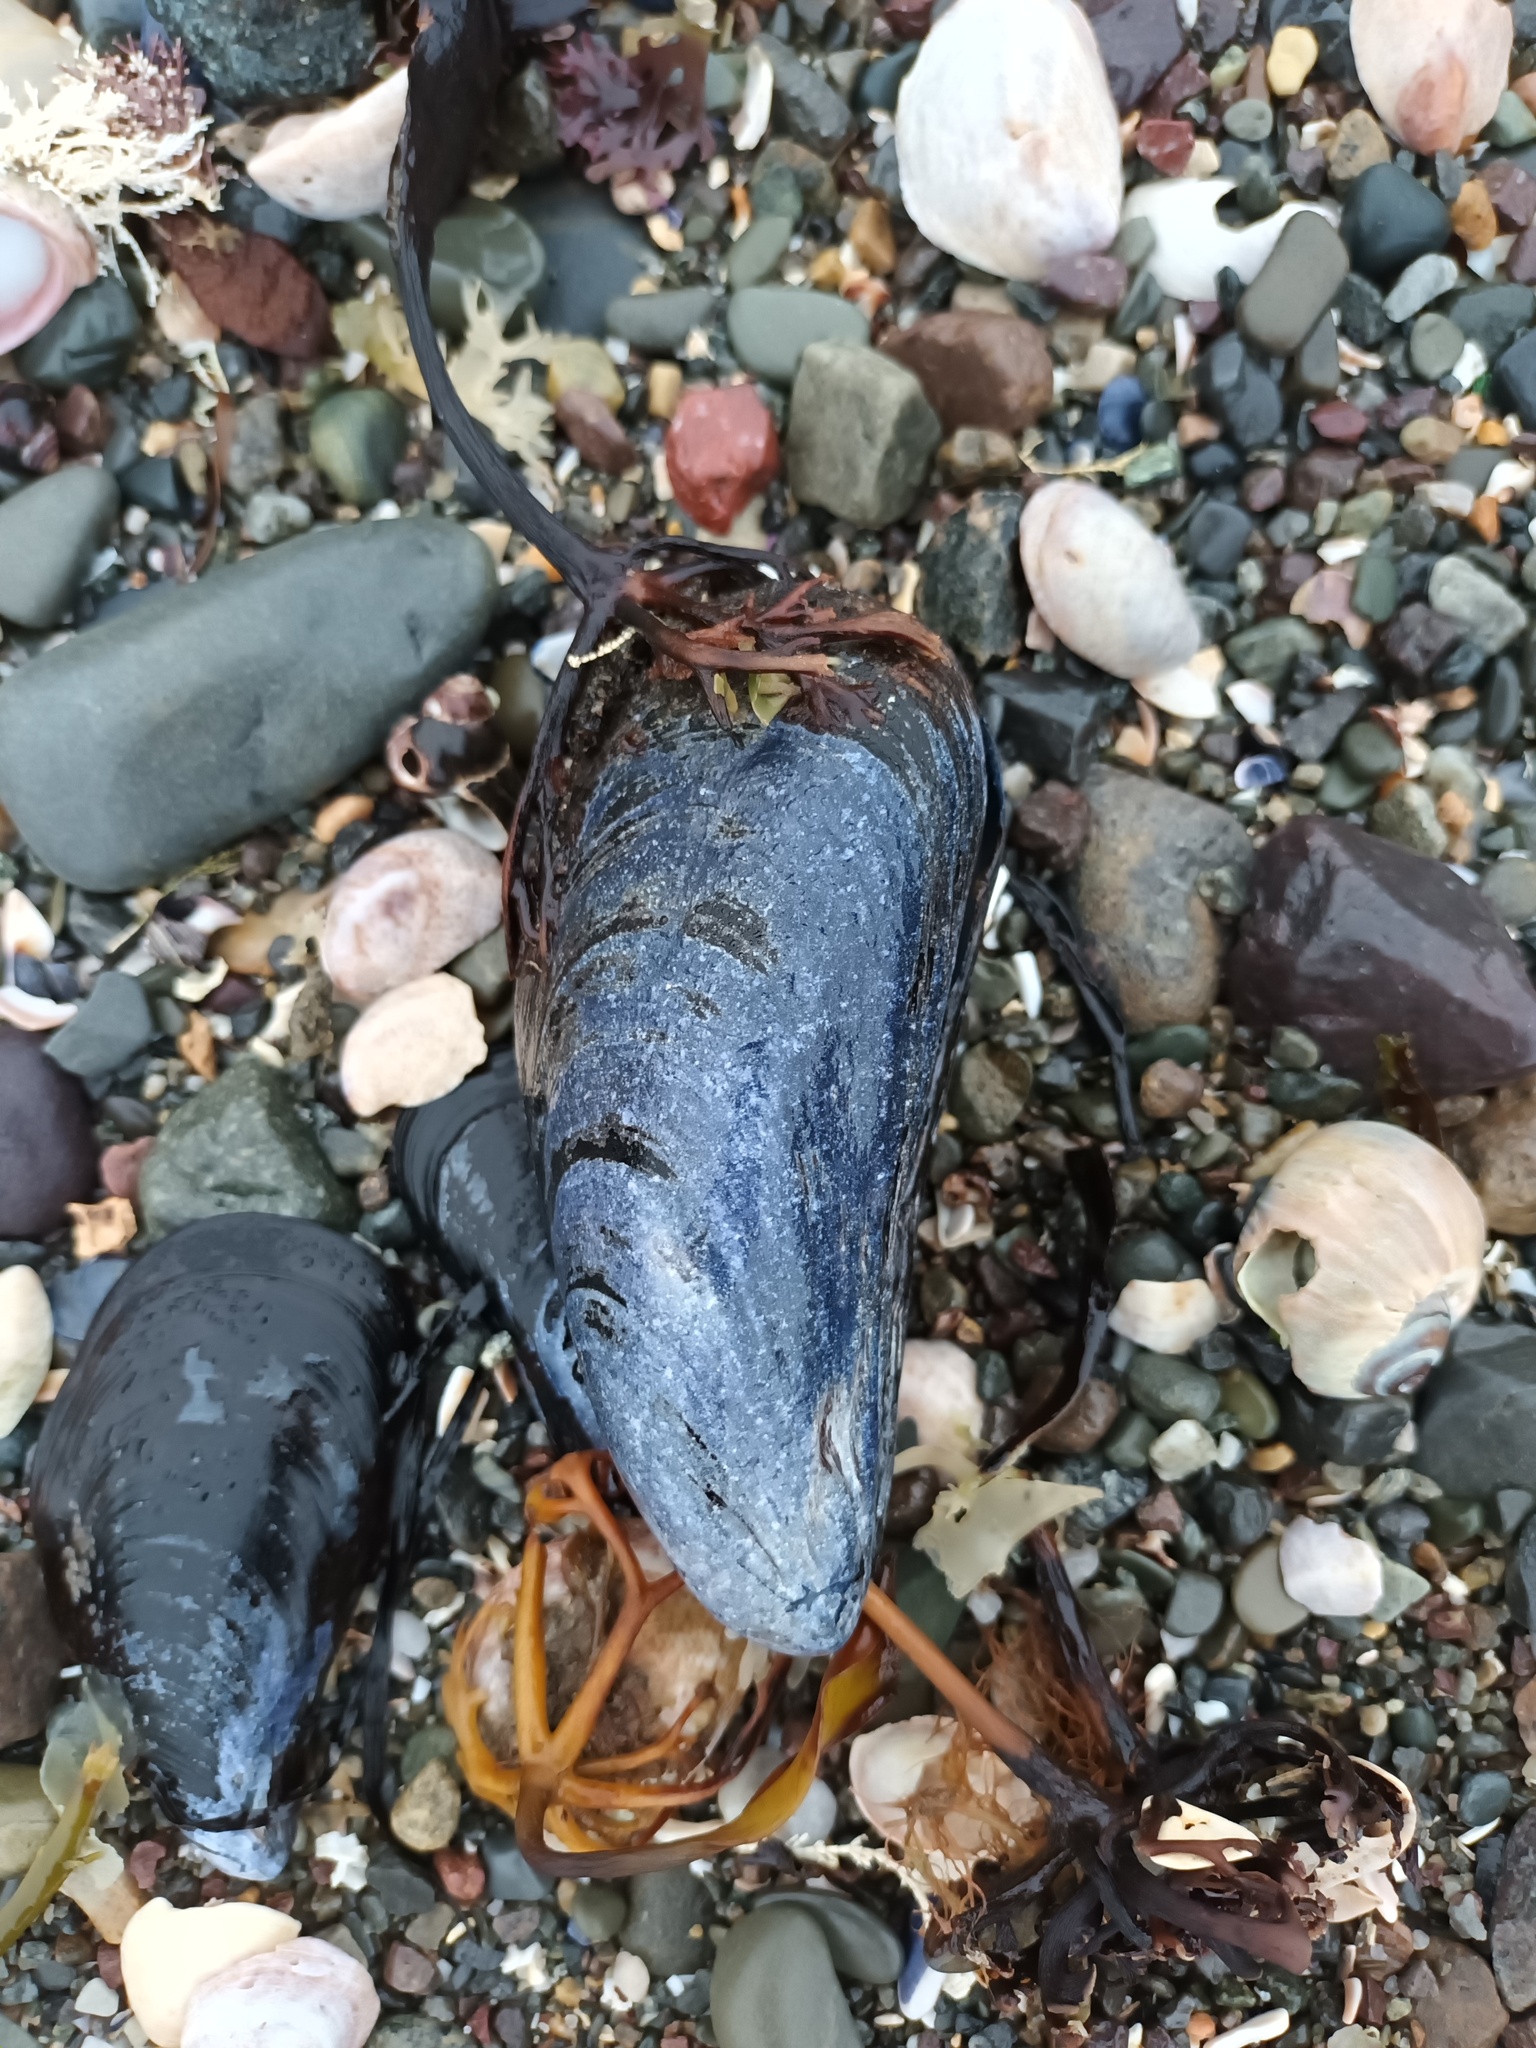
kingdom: Animalia
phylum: Mollusca
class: Bivalvia
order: Mytilida
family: Mytilidae
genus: Mytilus
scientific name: Mytilus edulis
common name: Blue mussel
